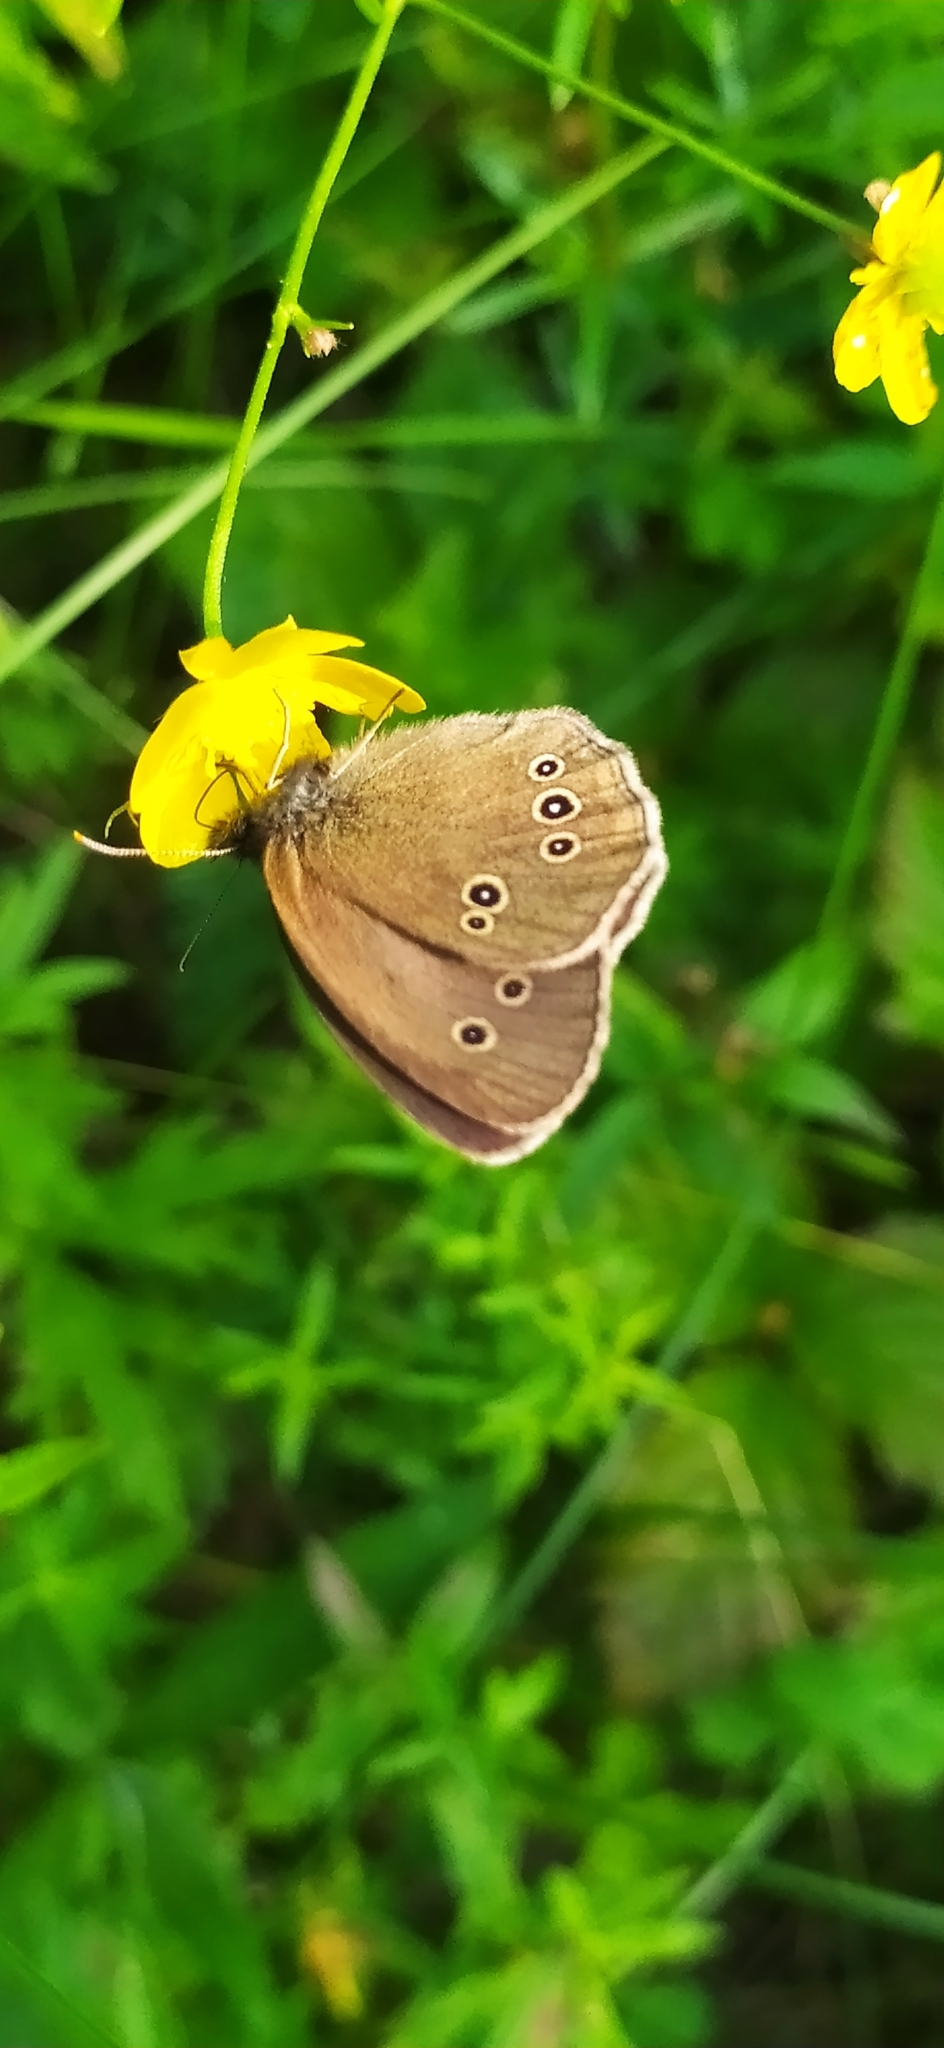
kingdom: Animalia
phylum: Arthropoda
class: Insecta
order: Lepidoptera
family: Nymphalidae
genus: Aphantopus
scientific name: Aphantopus hyperantus
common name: Ringlet
